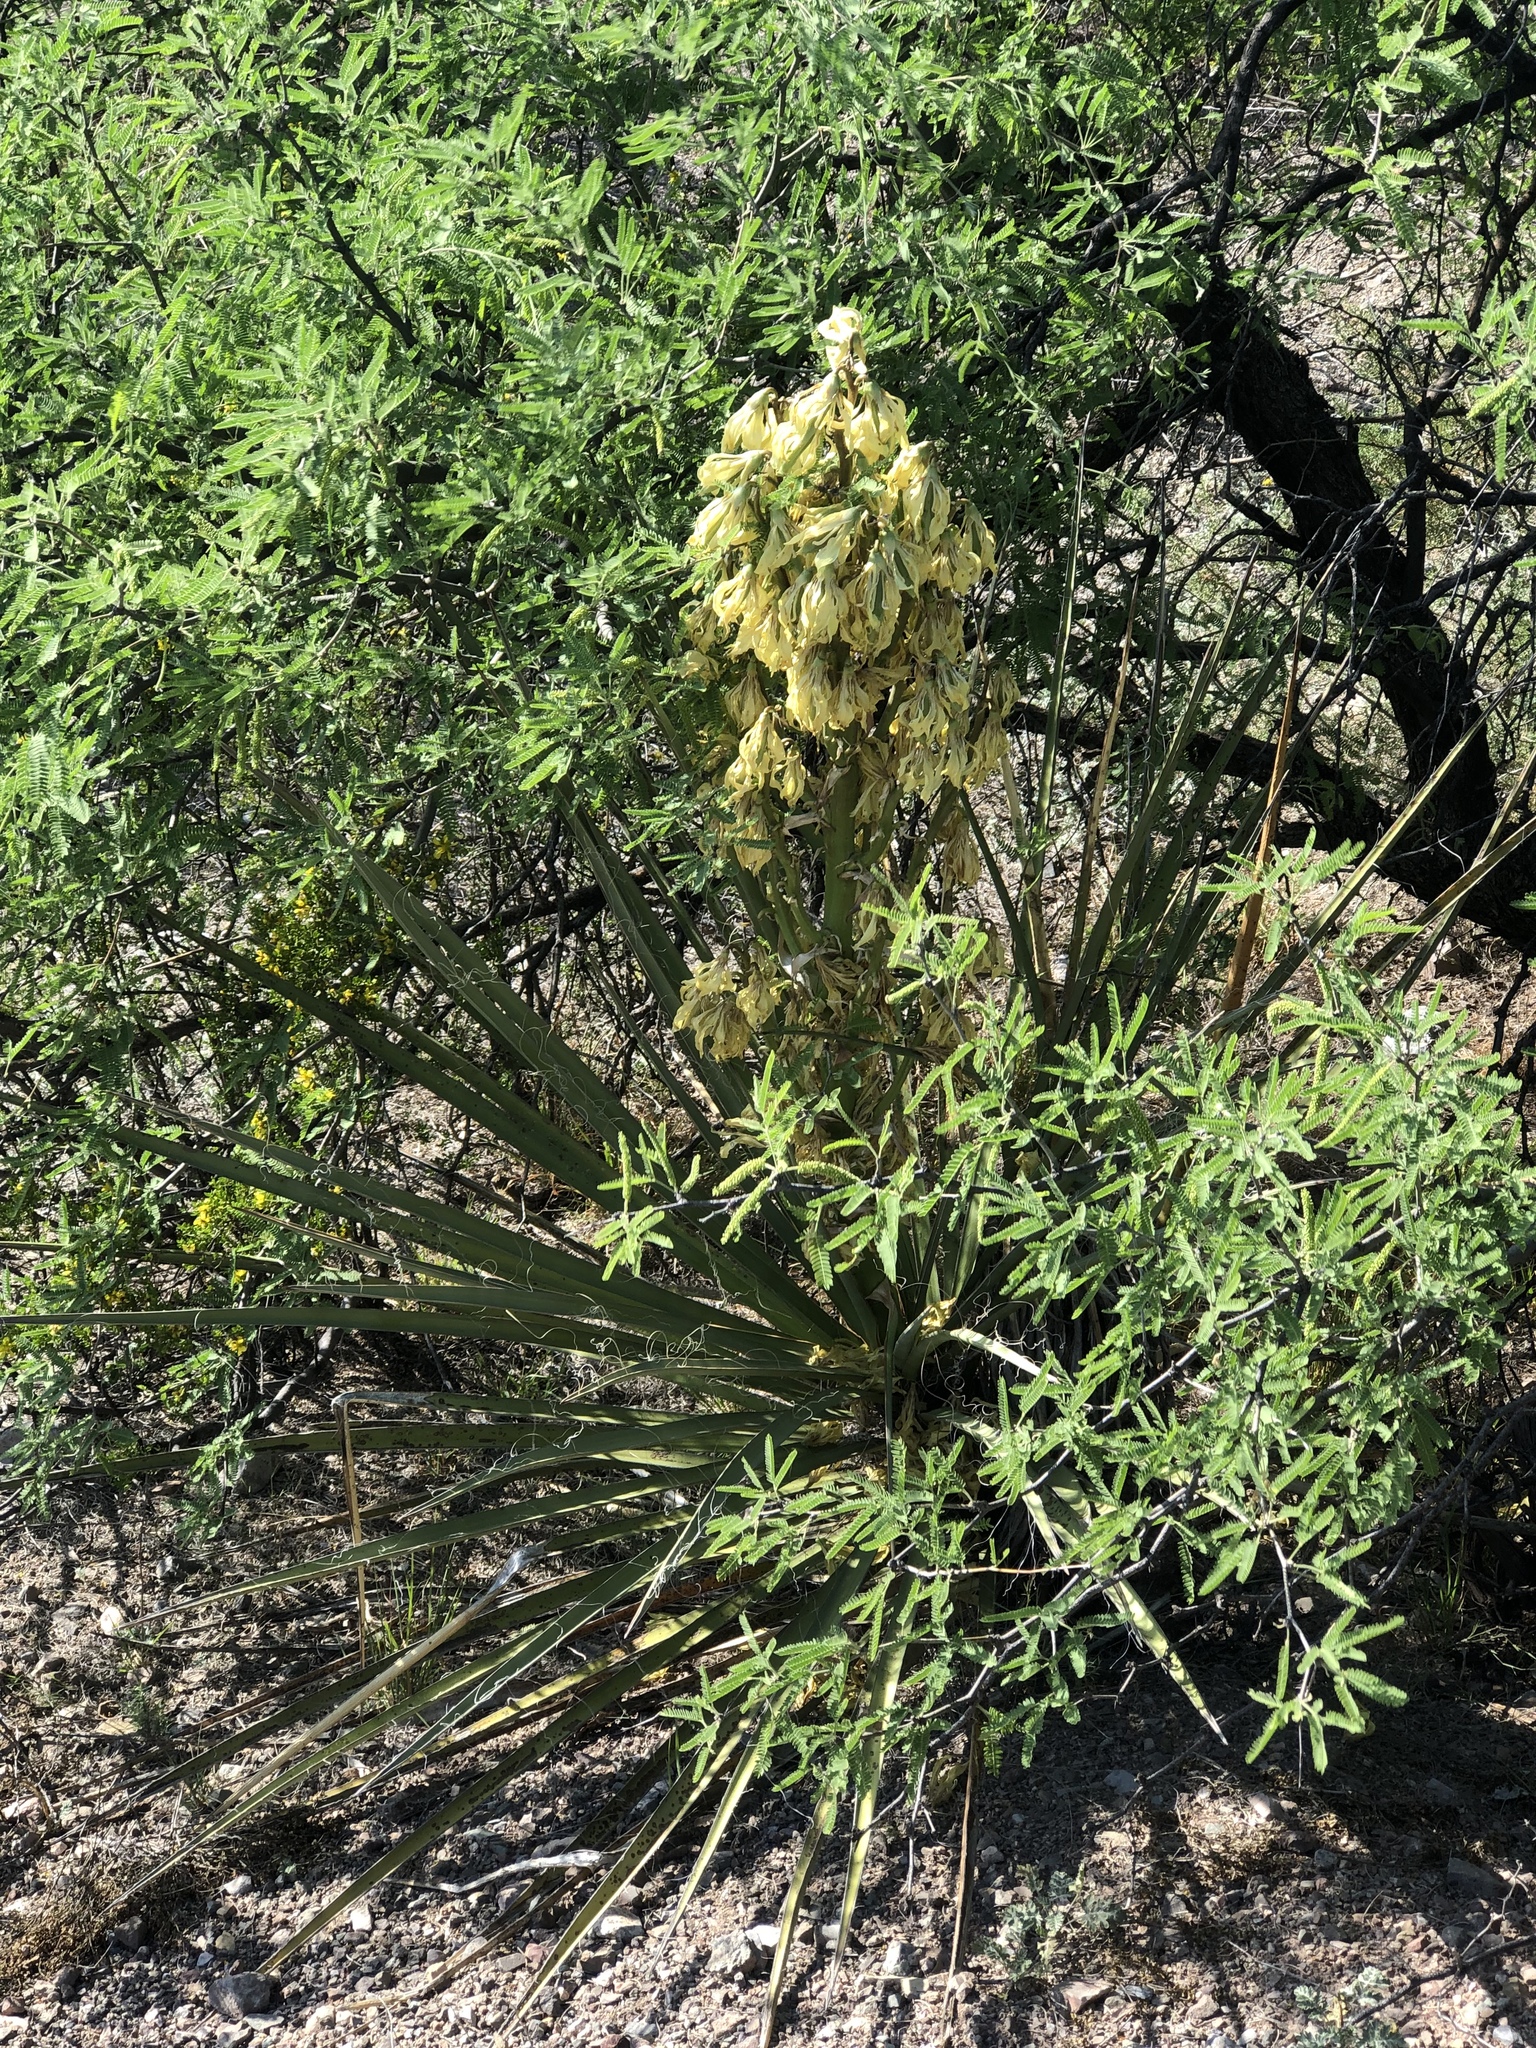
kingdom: Plantae
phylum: Tracheophyta
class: Liliopsida
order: Asparagales
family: Asparagaceae
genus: Yucca
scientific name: Yucca baccata
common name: Banana yucca
